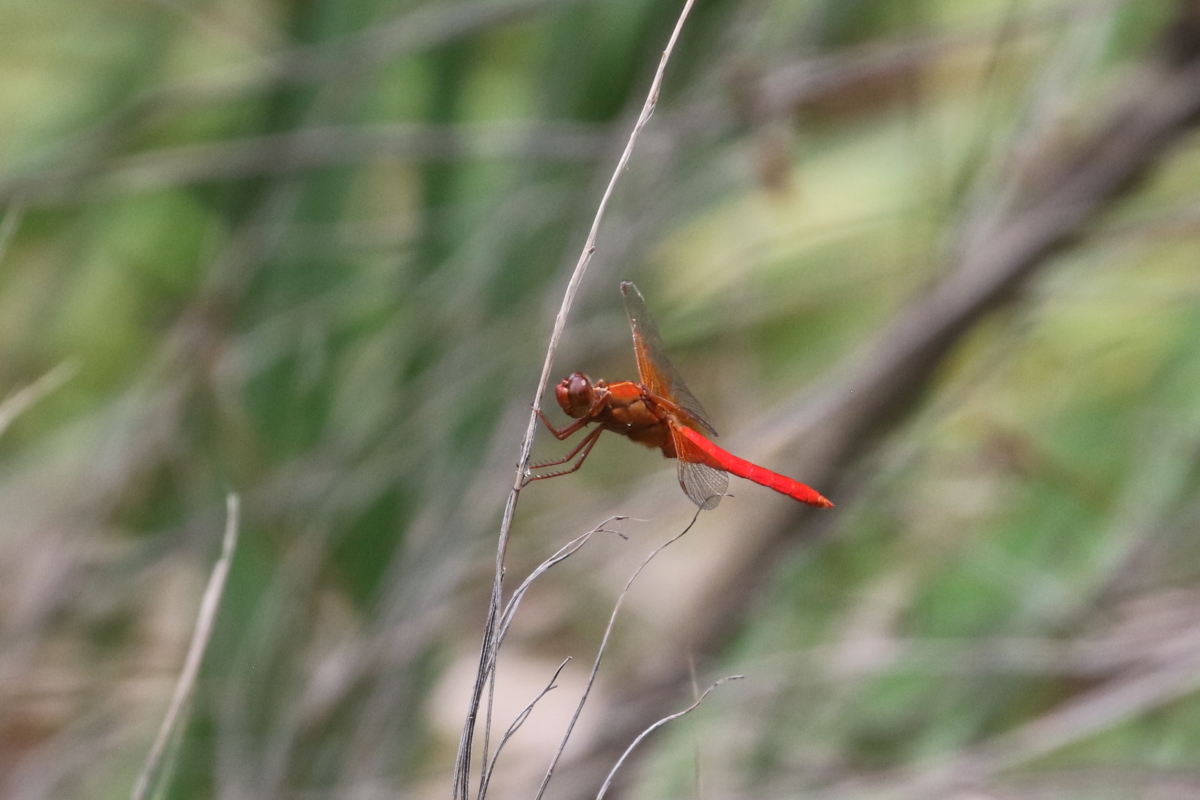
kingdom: Animalia
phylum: Arthropoda
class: Insecta
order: Odonata
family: Libellulidae
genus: Libellula
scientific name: Libellula croceipennis
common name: Neon skimmer
